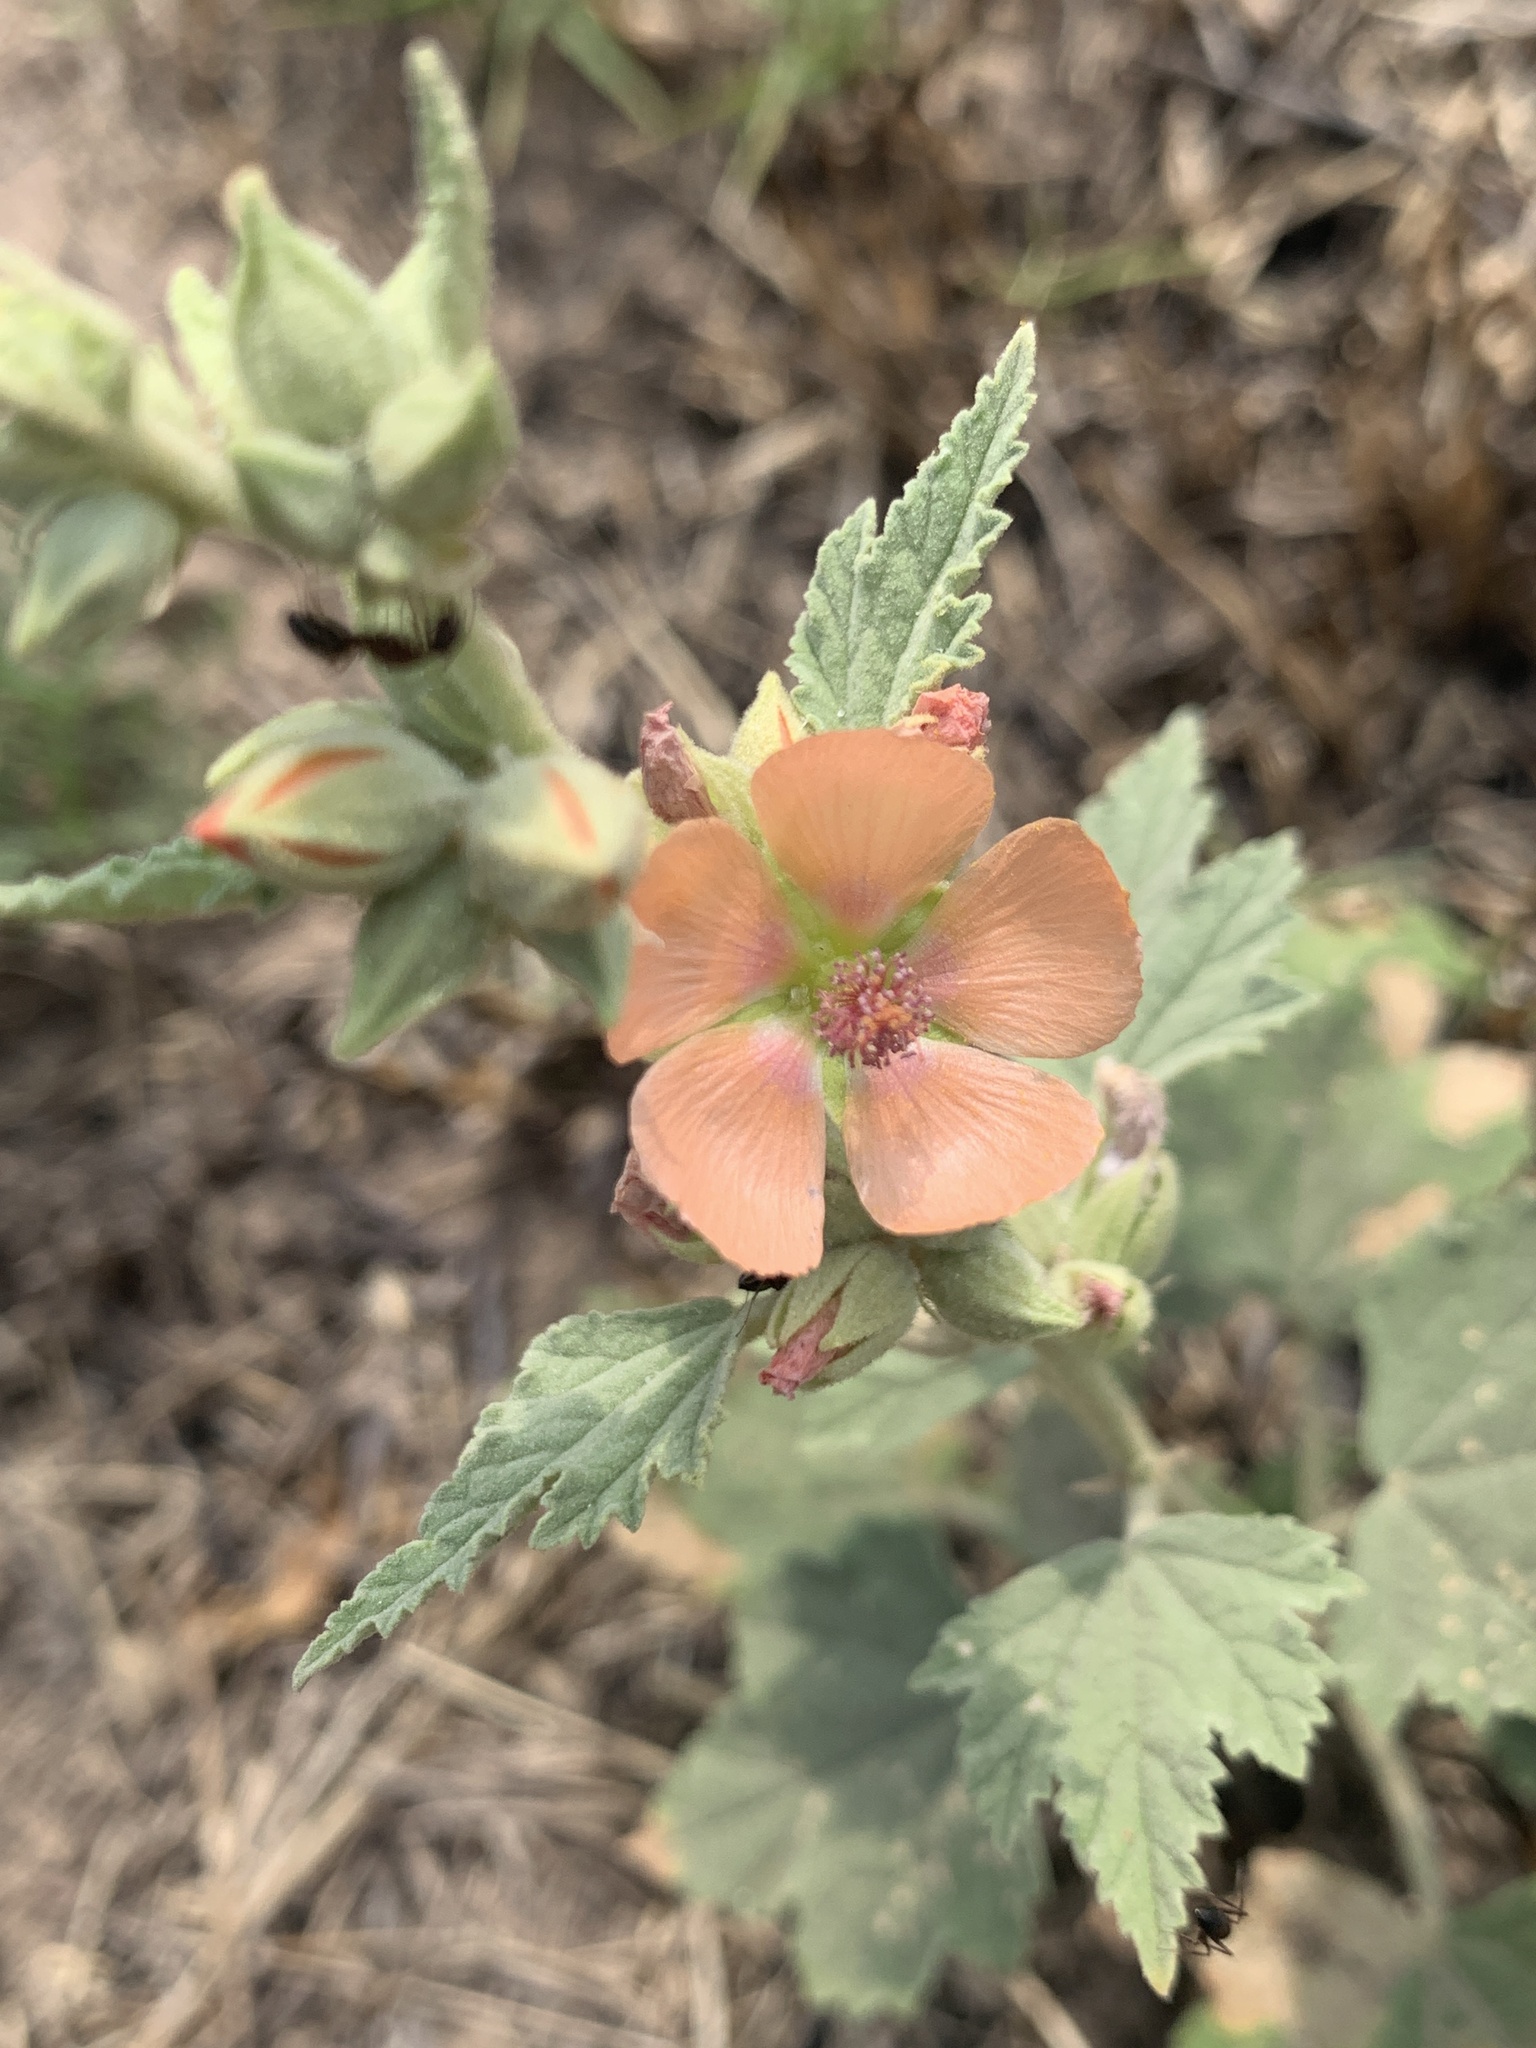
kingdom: Plantae
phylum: Tracheophyta
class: Magnoliopsida
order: Malvales
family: Malvaceae
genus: Sphaeralcea
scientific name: Sphaeralcea bonariensis
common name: Latin globemallow
